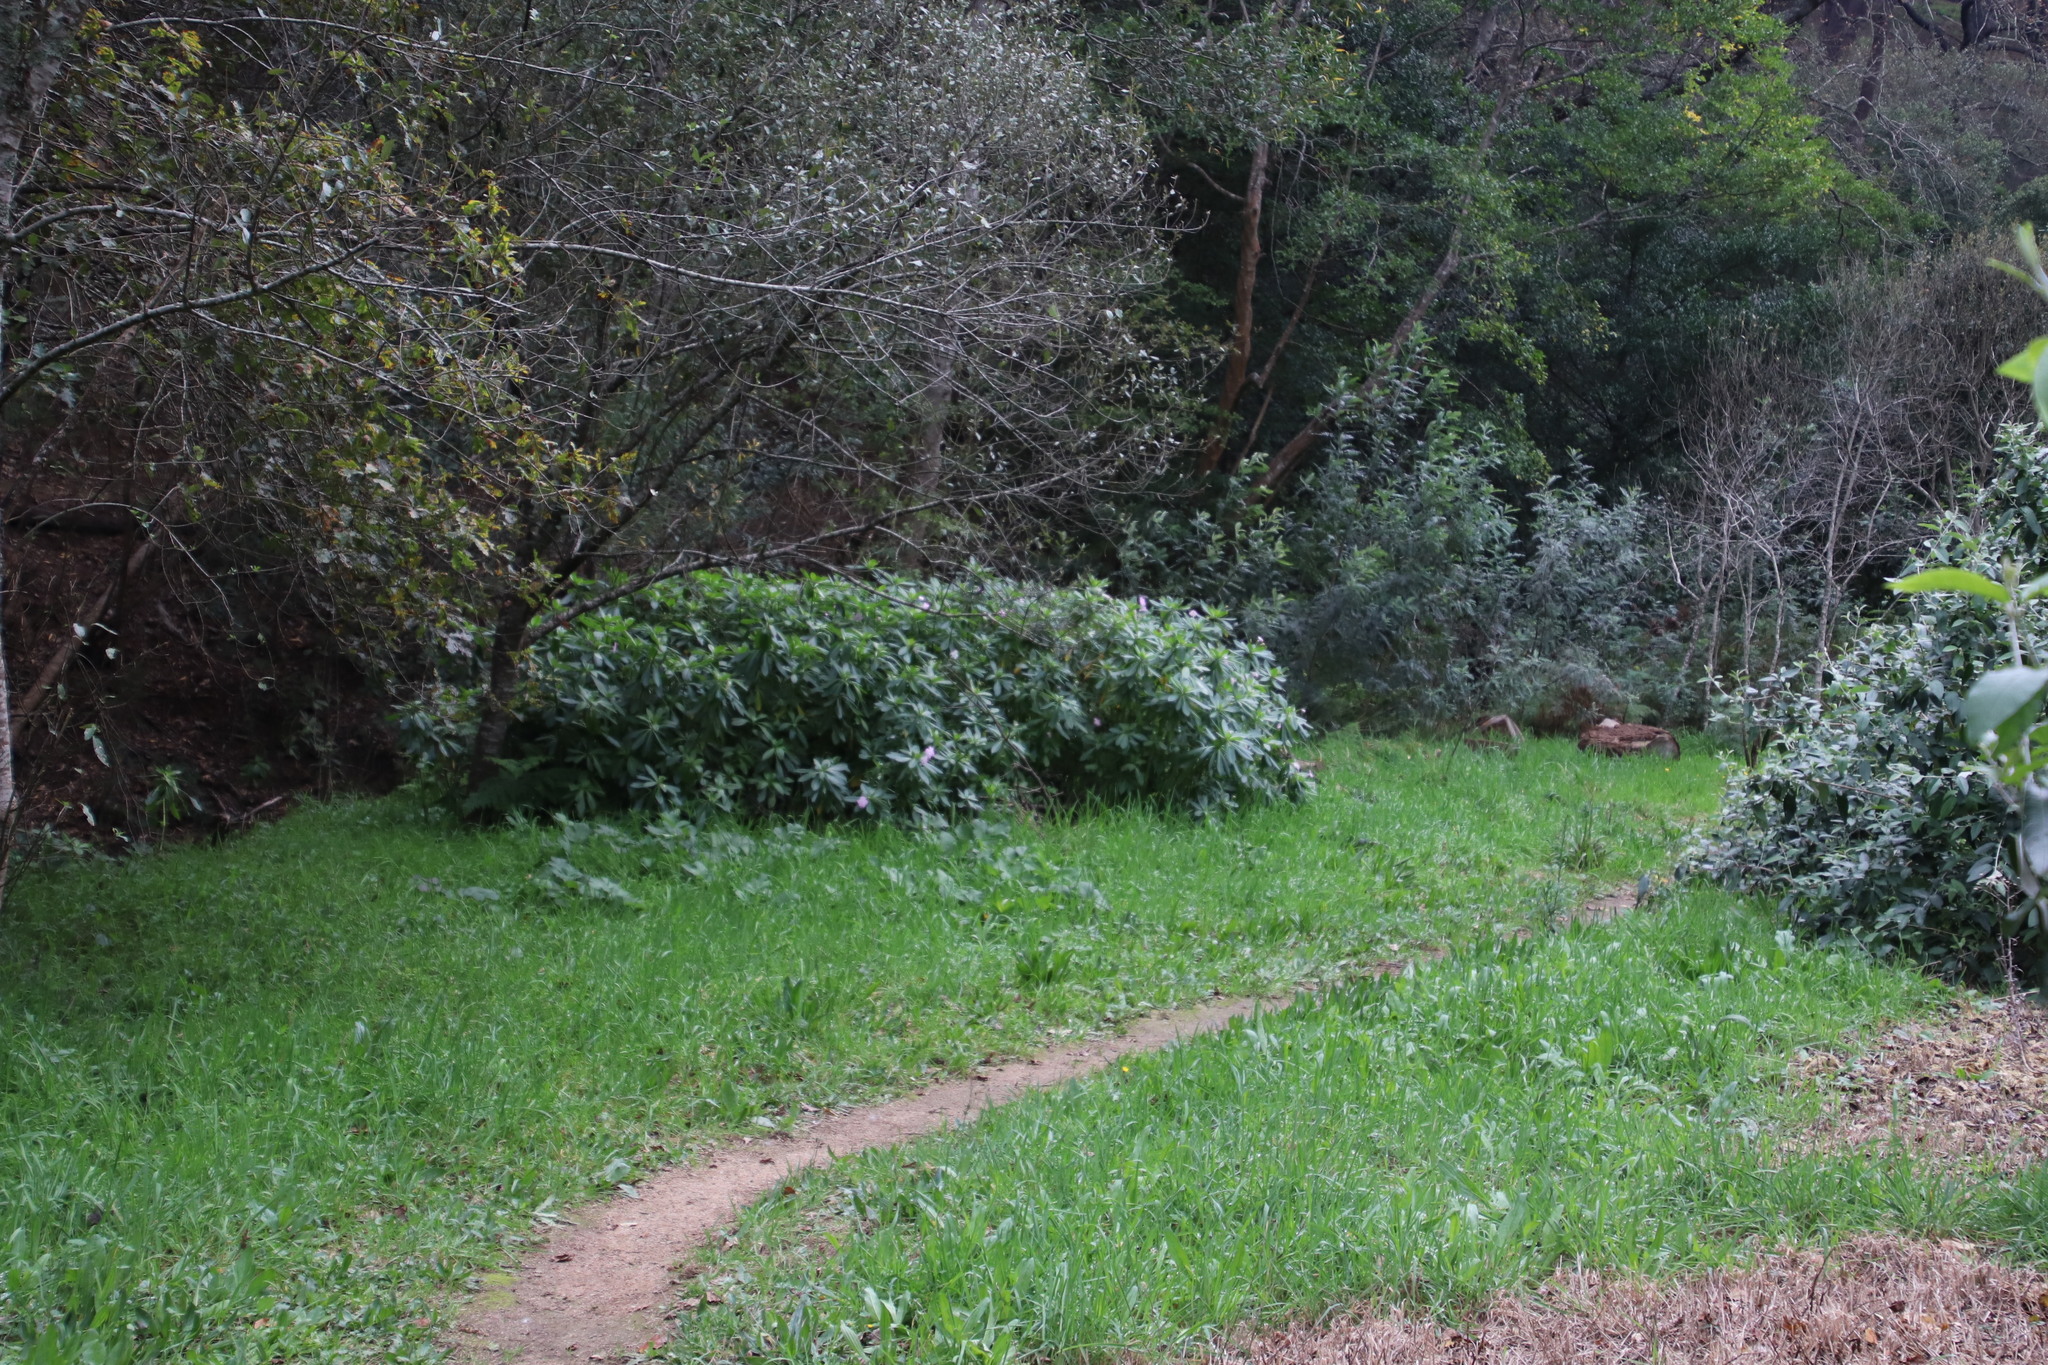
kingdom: Plantae
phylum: Tracheophyta
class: Magnoliopsida
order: Ericales
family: Balsaminaceae
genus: Impatiens
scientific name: Impatiens sodenii
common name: Oliver's touch-me-not
